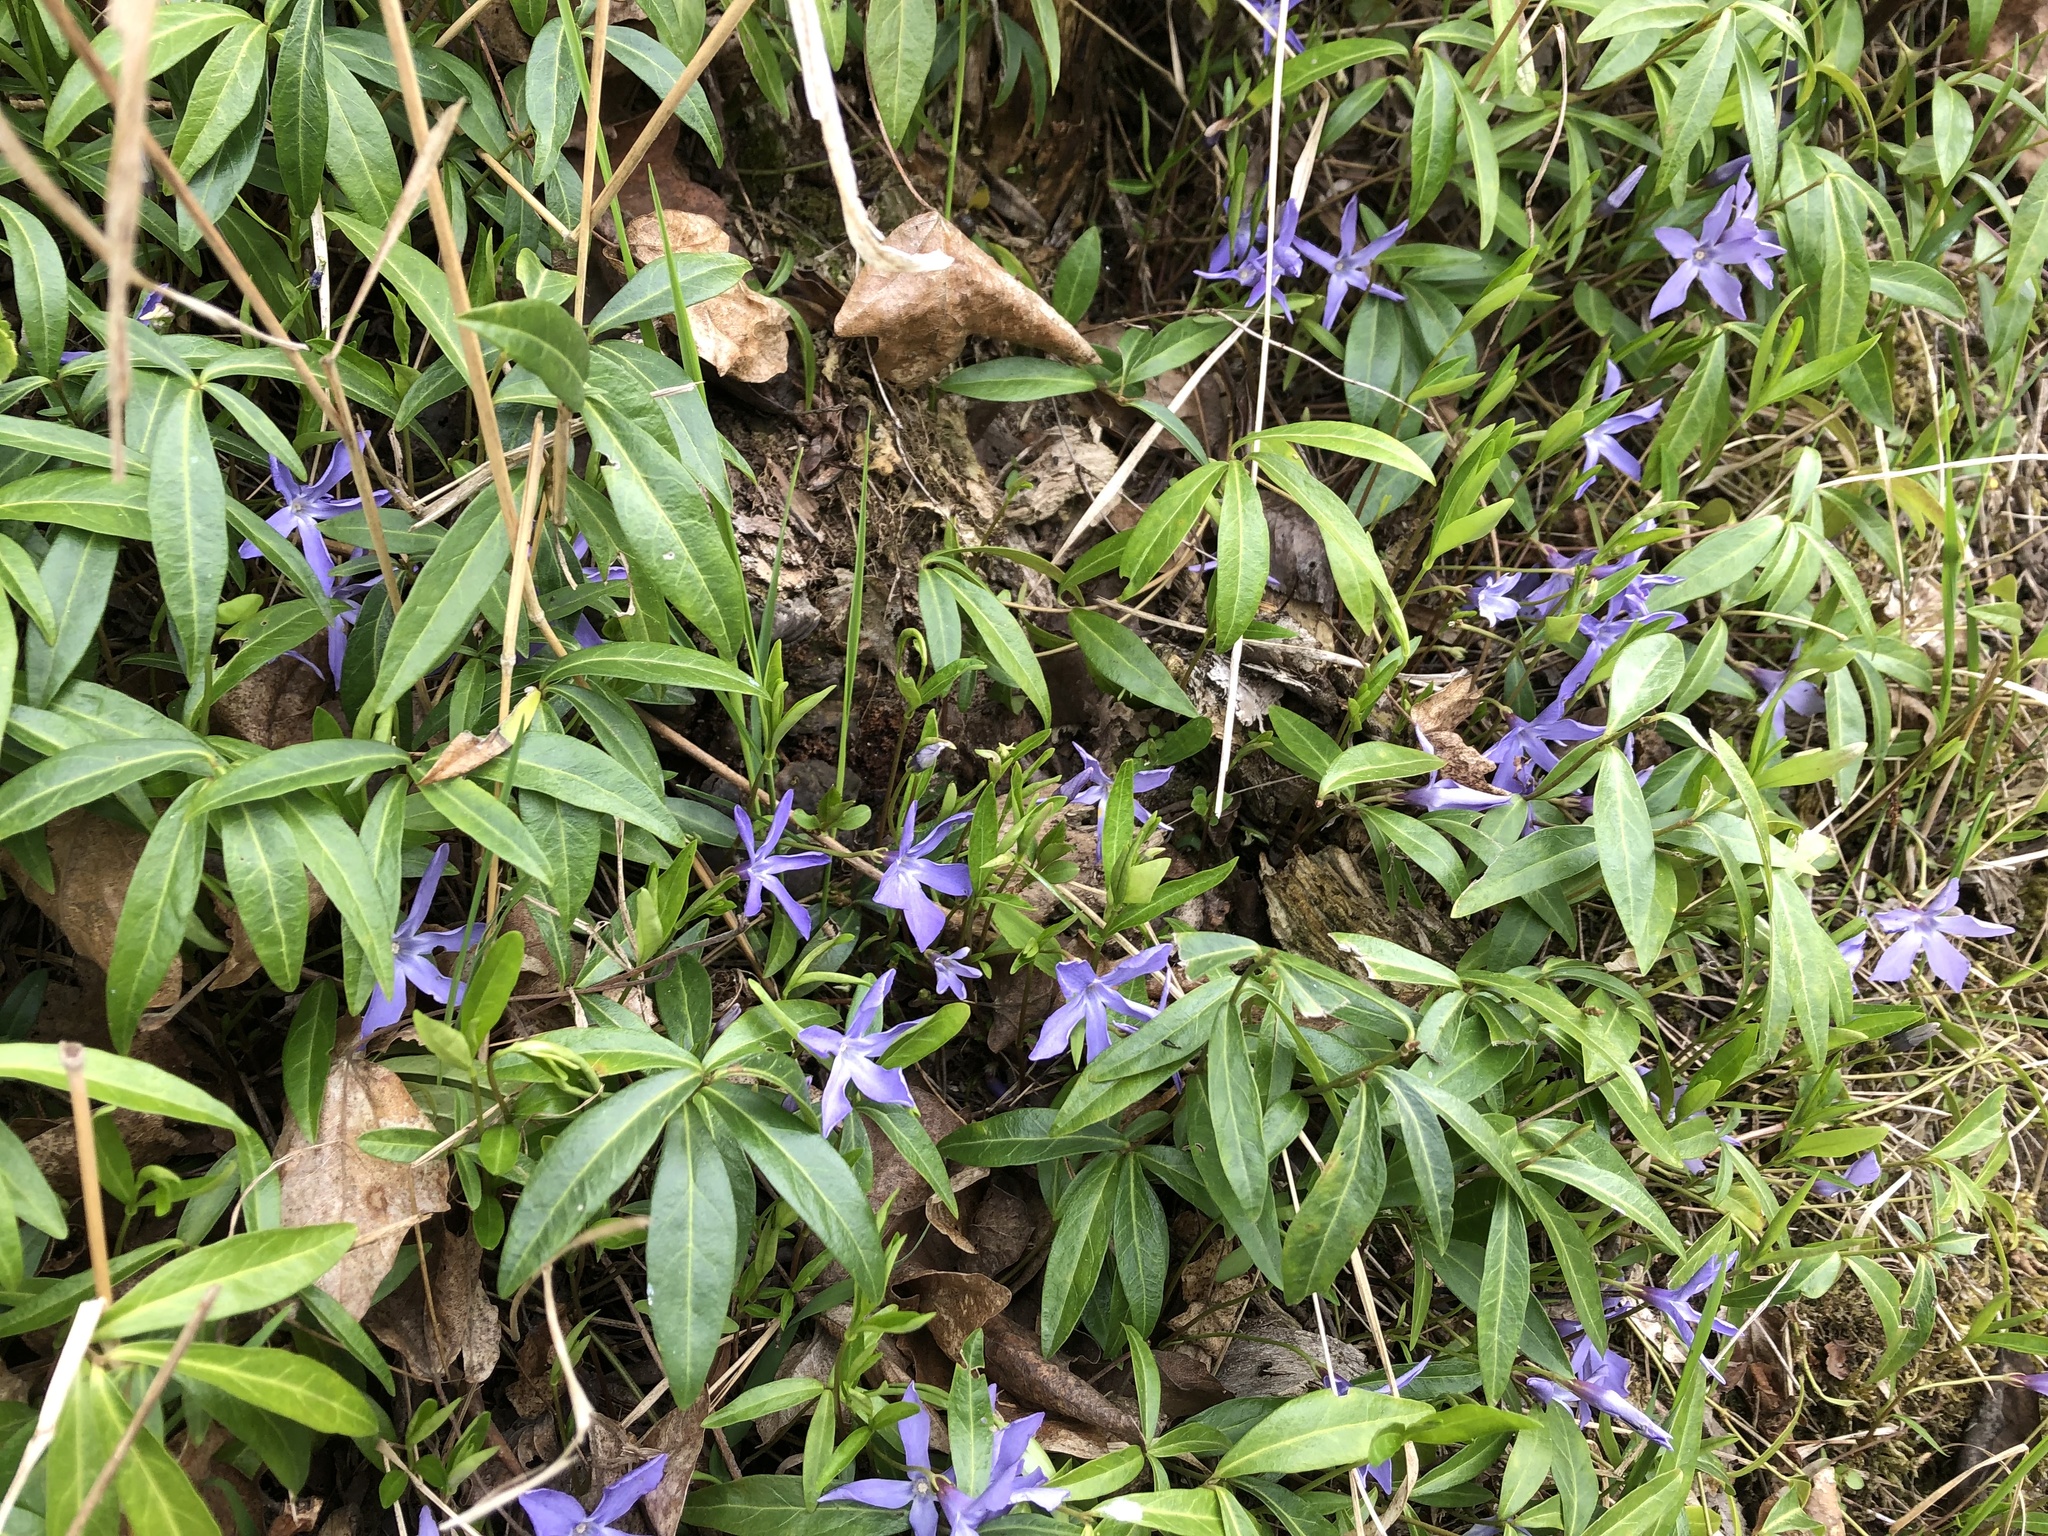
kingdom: Plantae
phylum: Tracheophyta
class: Magnoliopsida
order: Gentianales
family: Apocynaceae
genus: Vinca
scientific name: Vinca minor
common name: Lesser periwinkle
